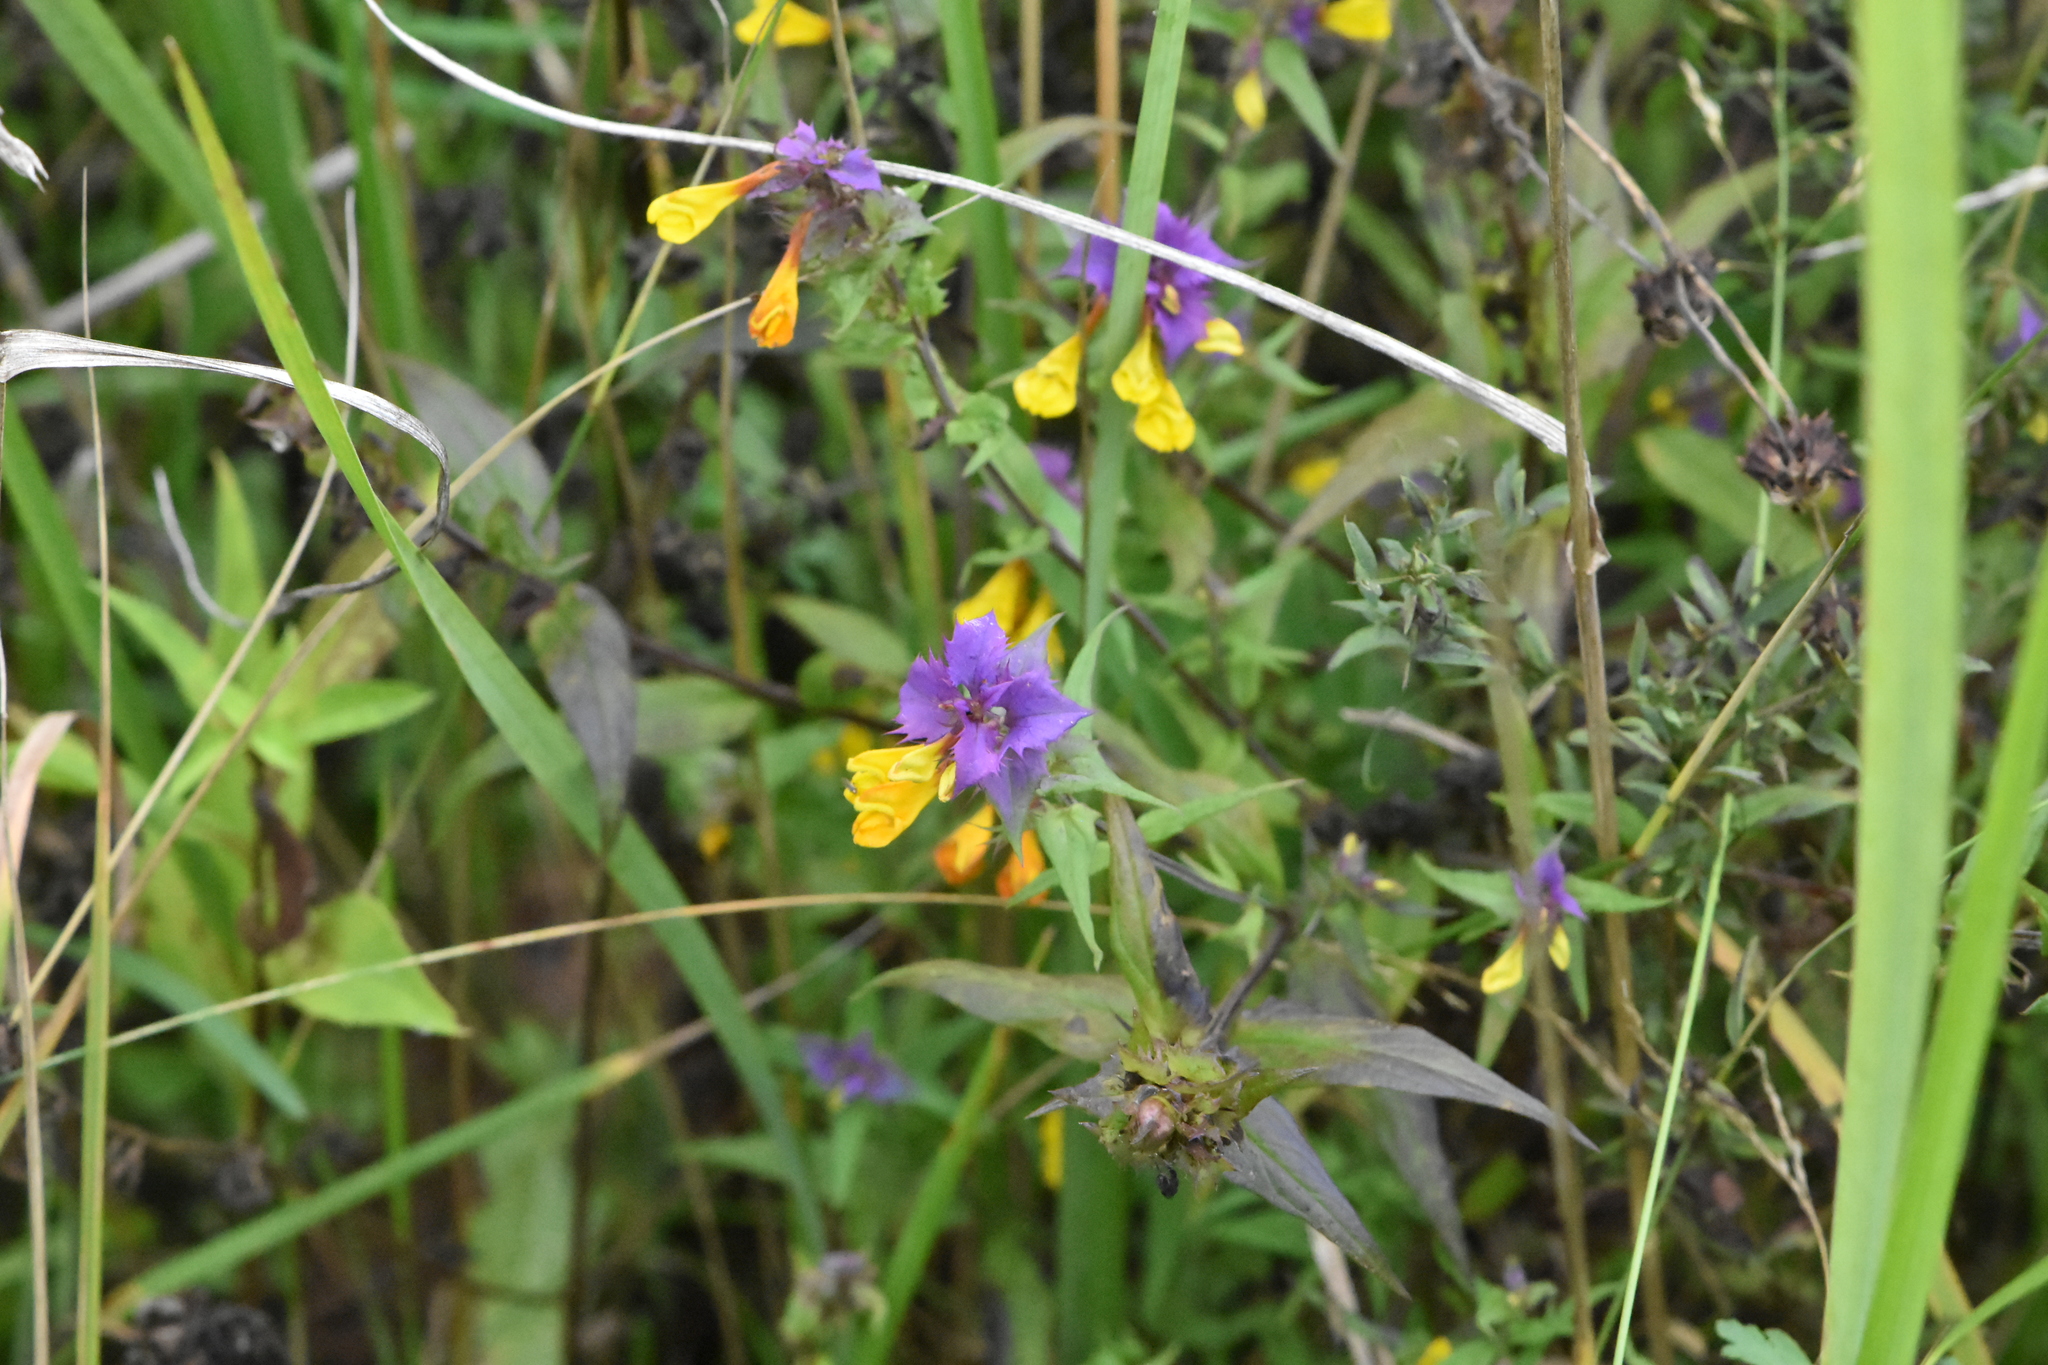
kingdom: Plantae
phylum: Tracheophyta
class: Magnoliopsida
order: Lamiales
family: Orobanchaceae
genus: Melampyrum
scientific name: Melampyrum nemorosum
